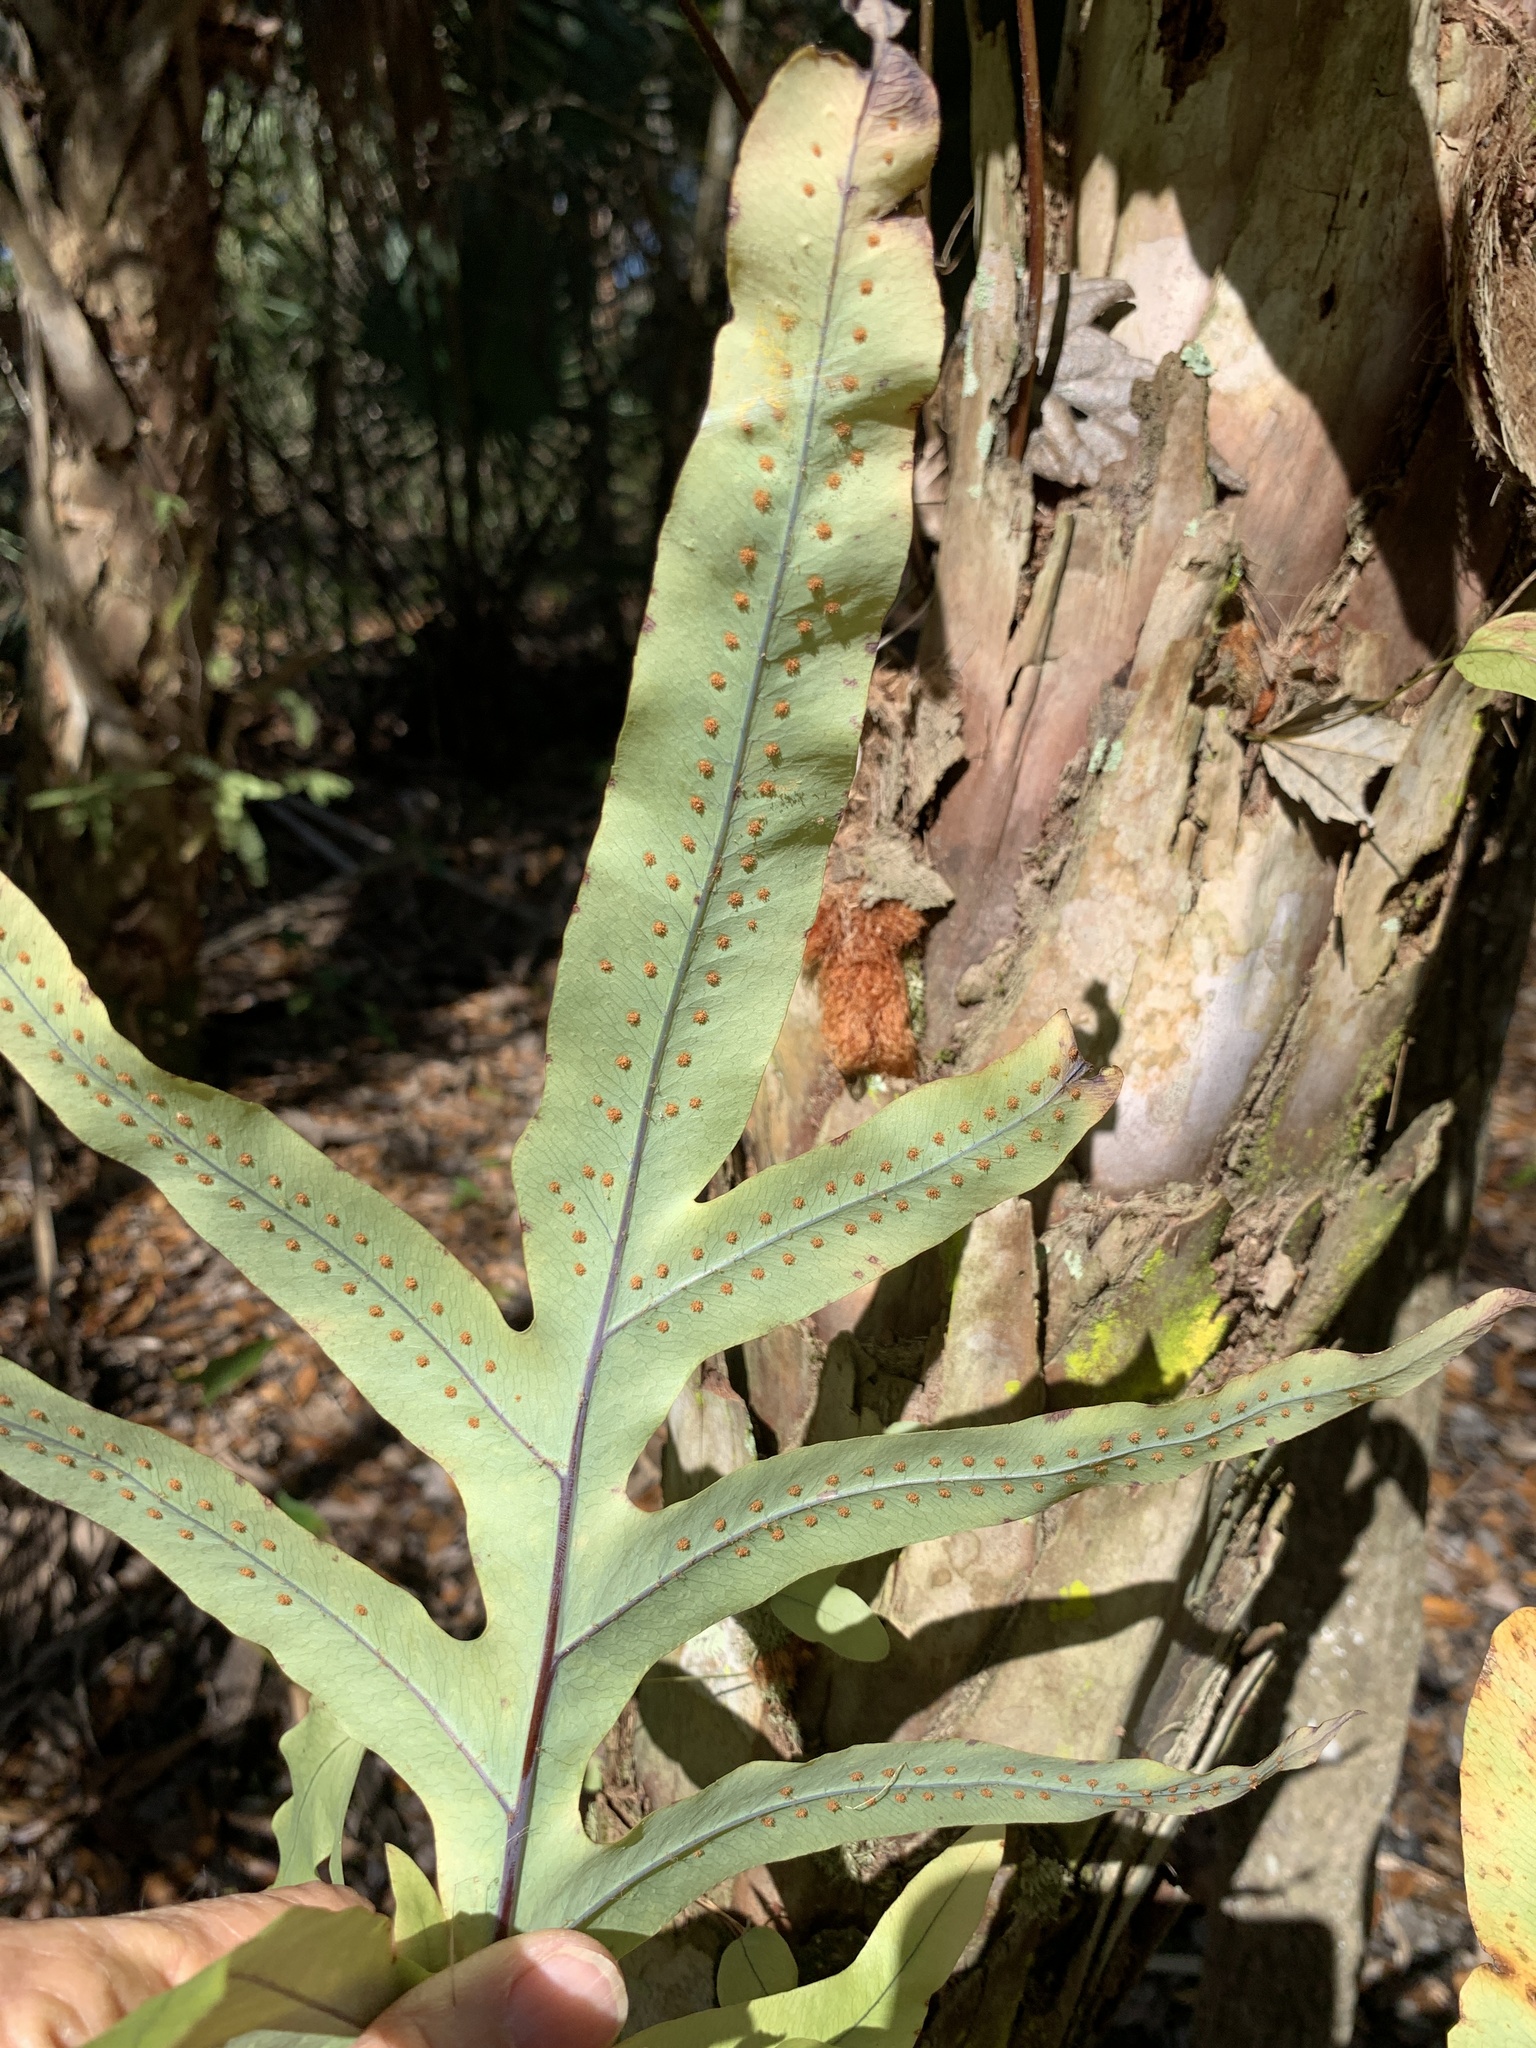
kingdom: Plantae
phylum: Tracheophyta
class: Polypodiopsida
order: Polypodiales
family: Polypodiaceae
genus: Phlebodium
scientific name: Phlebodium aureum
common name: Gold-foot fern
